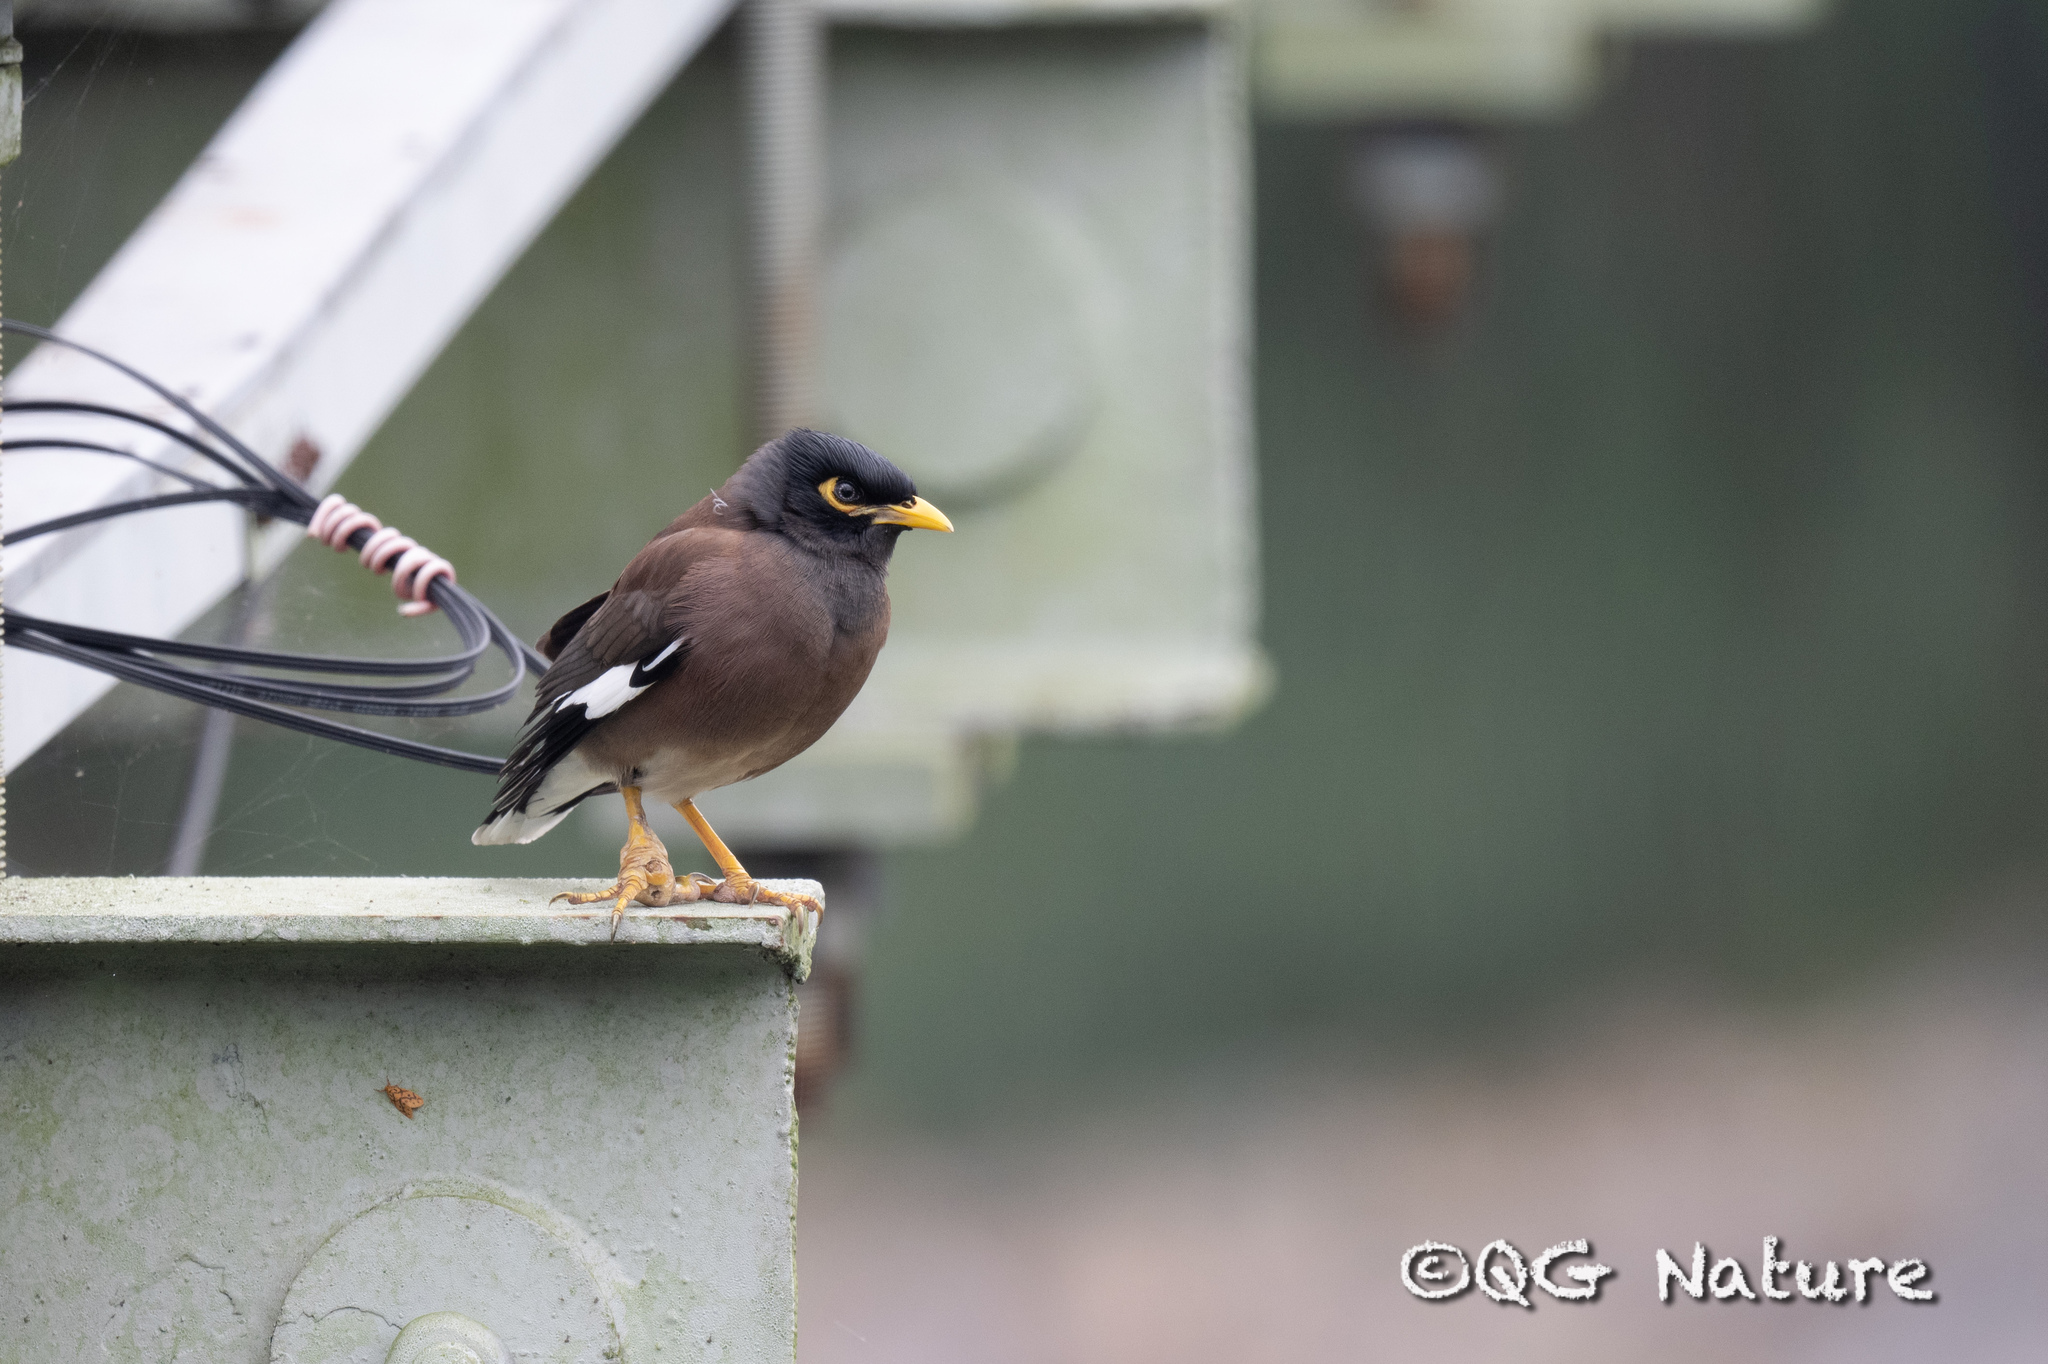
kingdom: Animalia
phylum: Chordata
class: Aves
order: Passeriformes
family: Sturnidae
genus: Acridotheres
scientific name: Acridotheres tristis
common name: Common myna
